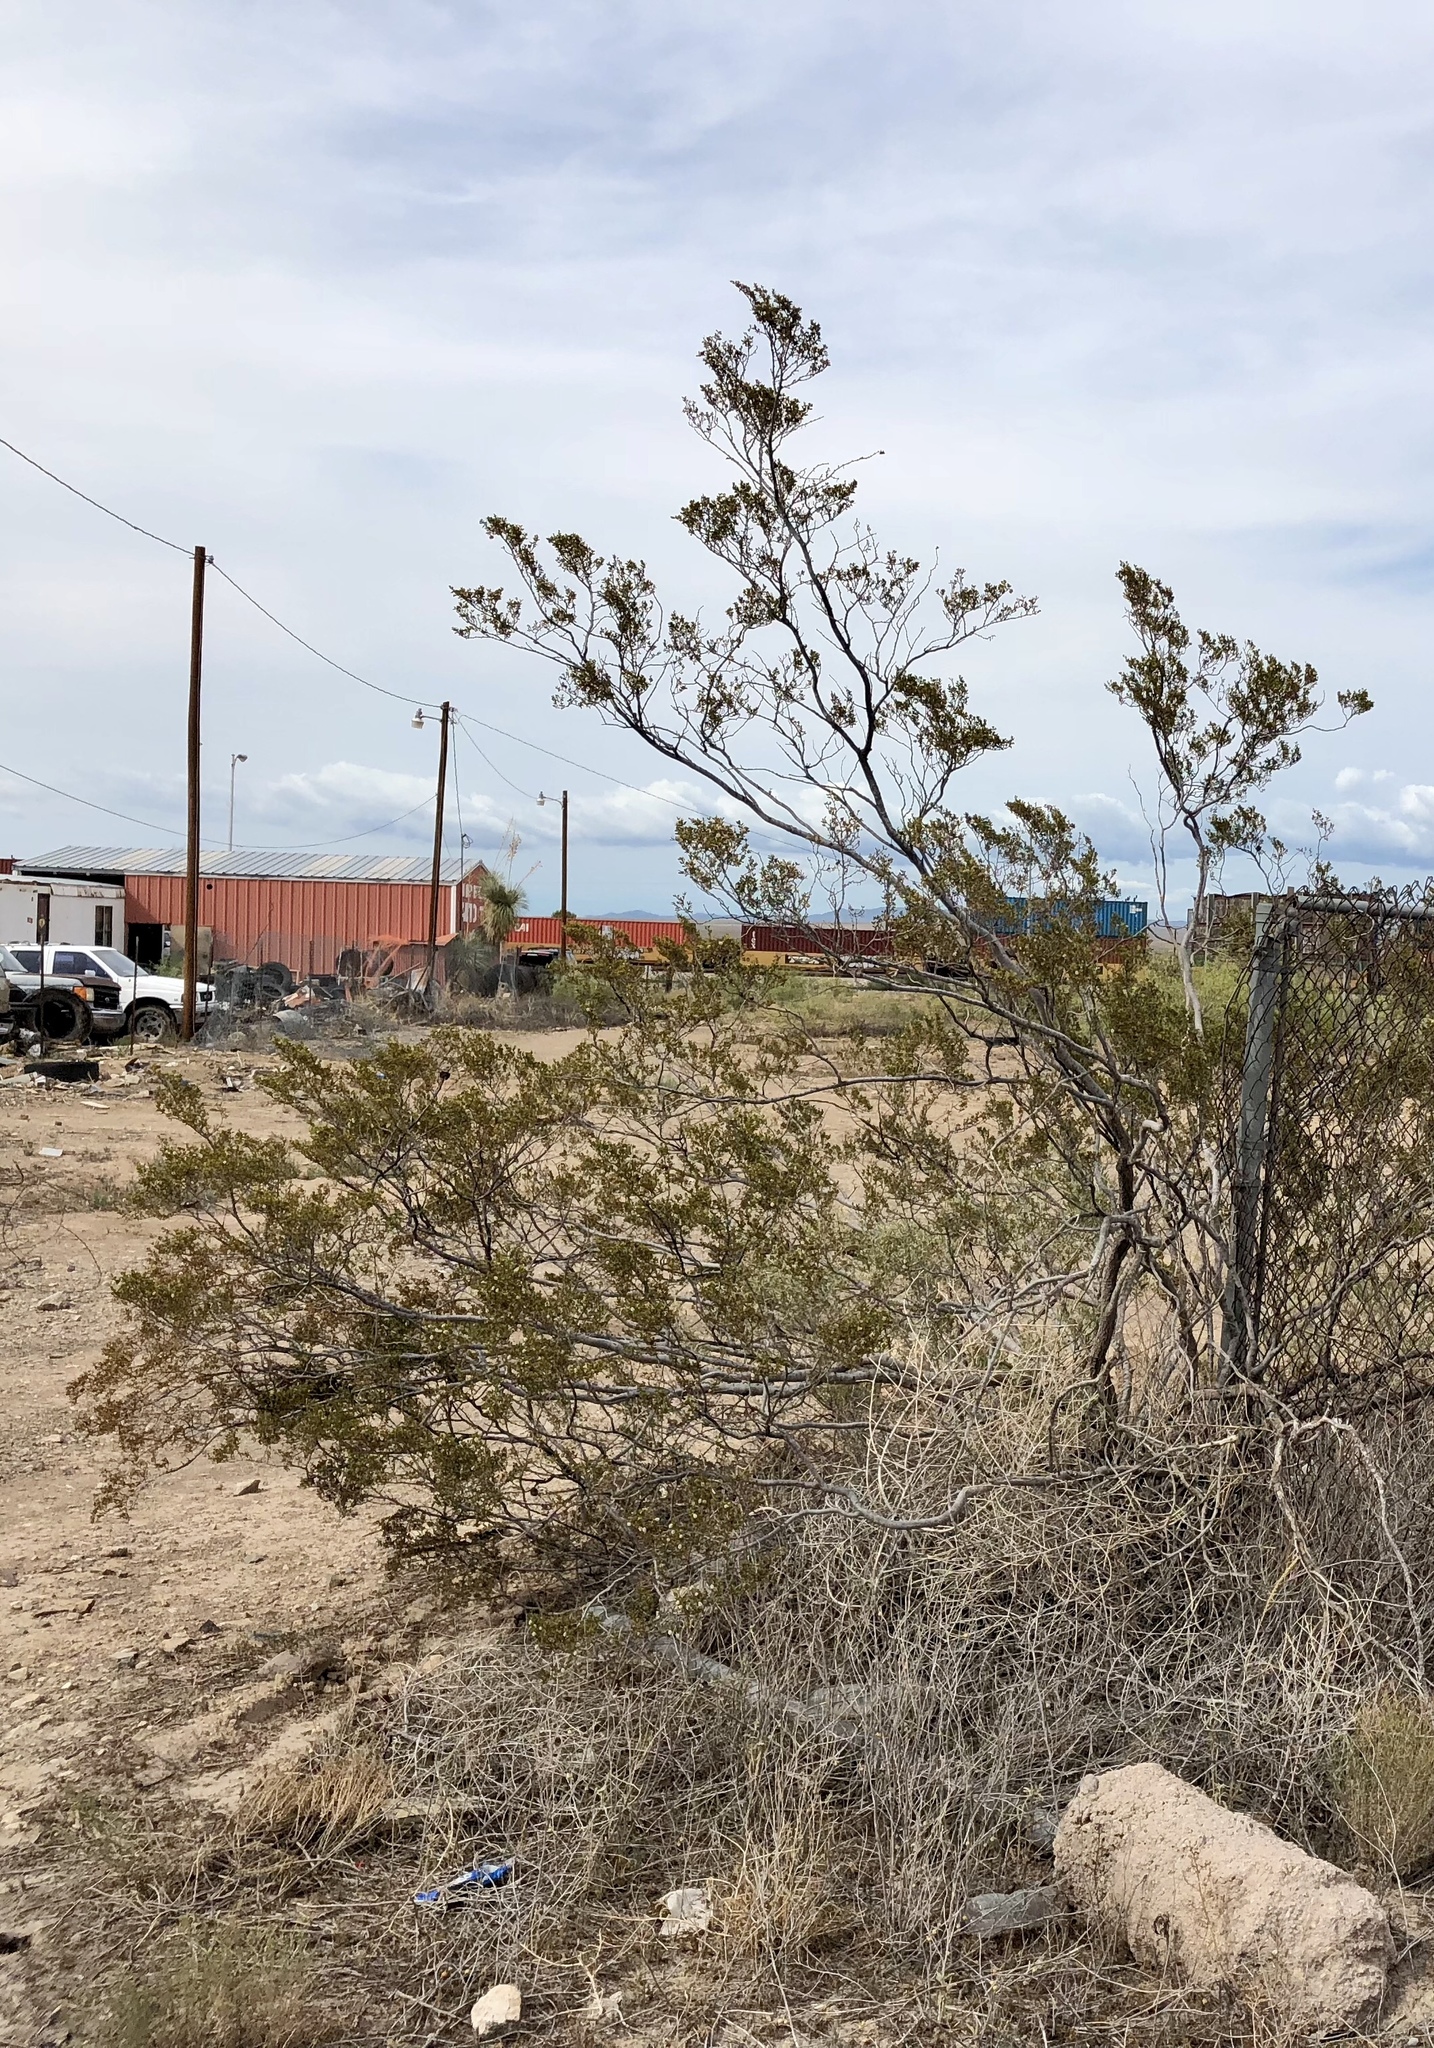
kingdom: Plantae
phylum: Tracheophyta
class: Magnoliopsida
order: Zygophyllales
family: Zygophyllaceae
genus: Larrea
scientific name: Larrea tridentata
